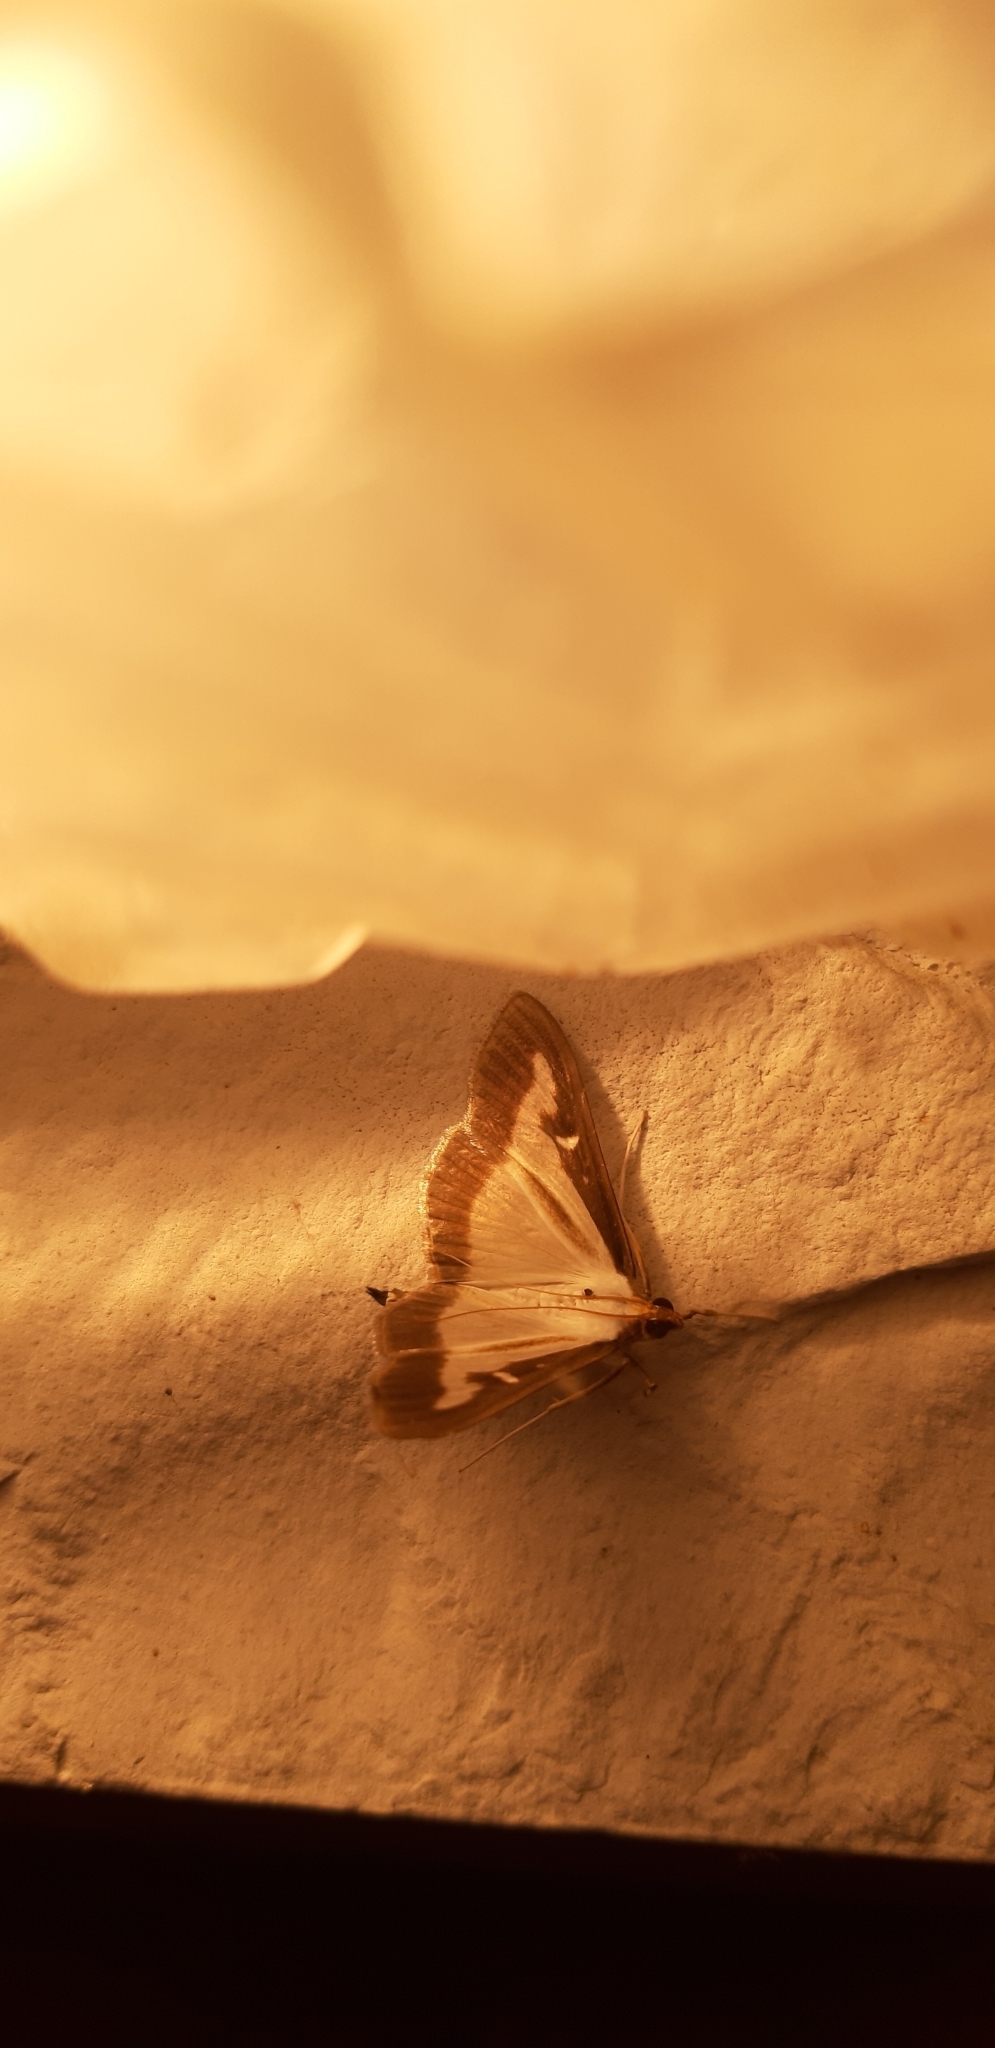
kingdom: Animalia
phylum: Arthropoda
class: Insecta
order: Lepidoptera
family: Crambidae
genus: Cydalima
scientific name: Cydalima perspectalis
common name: Box tree moth
